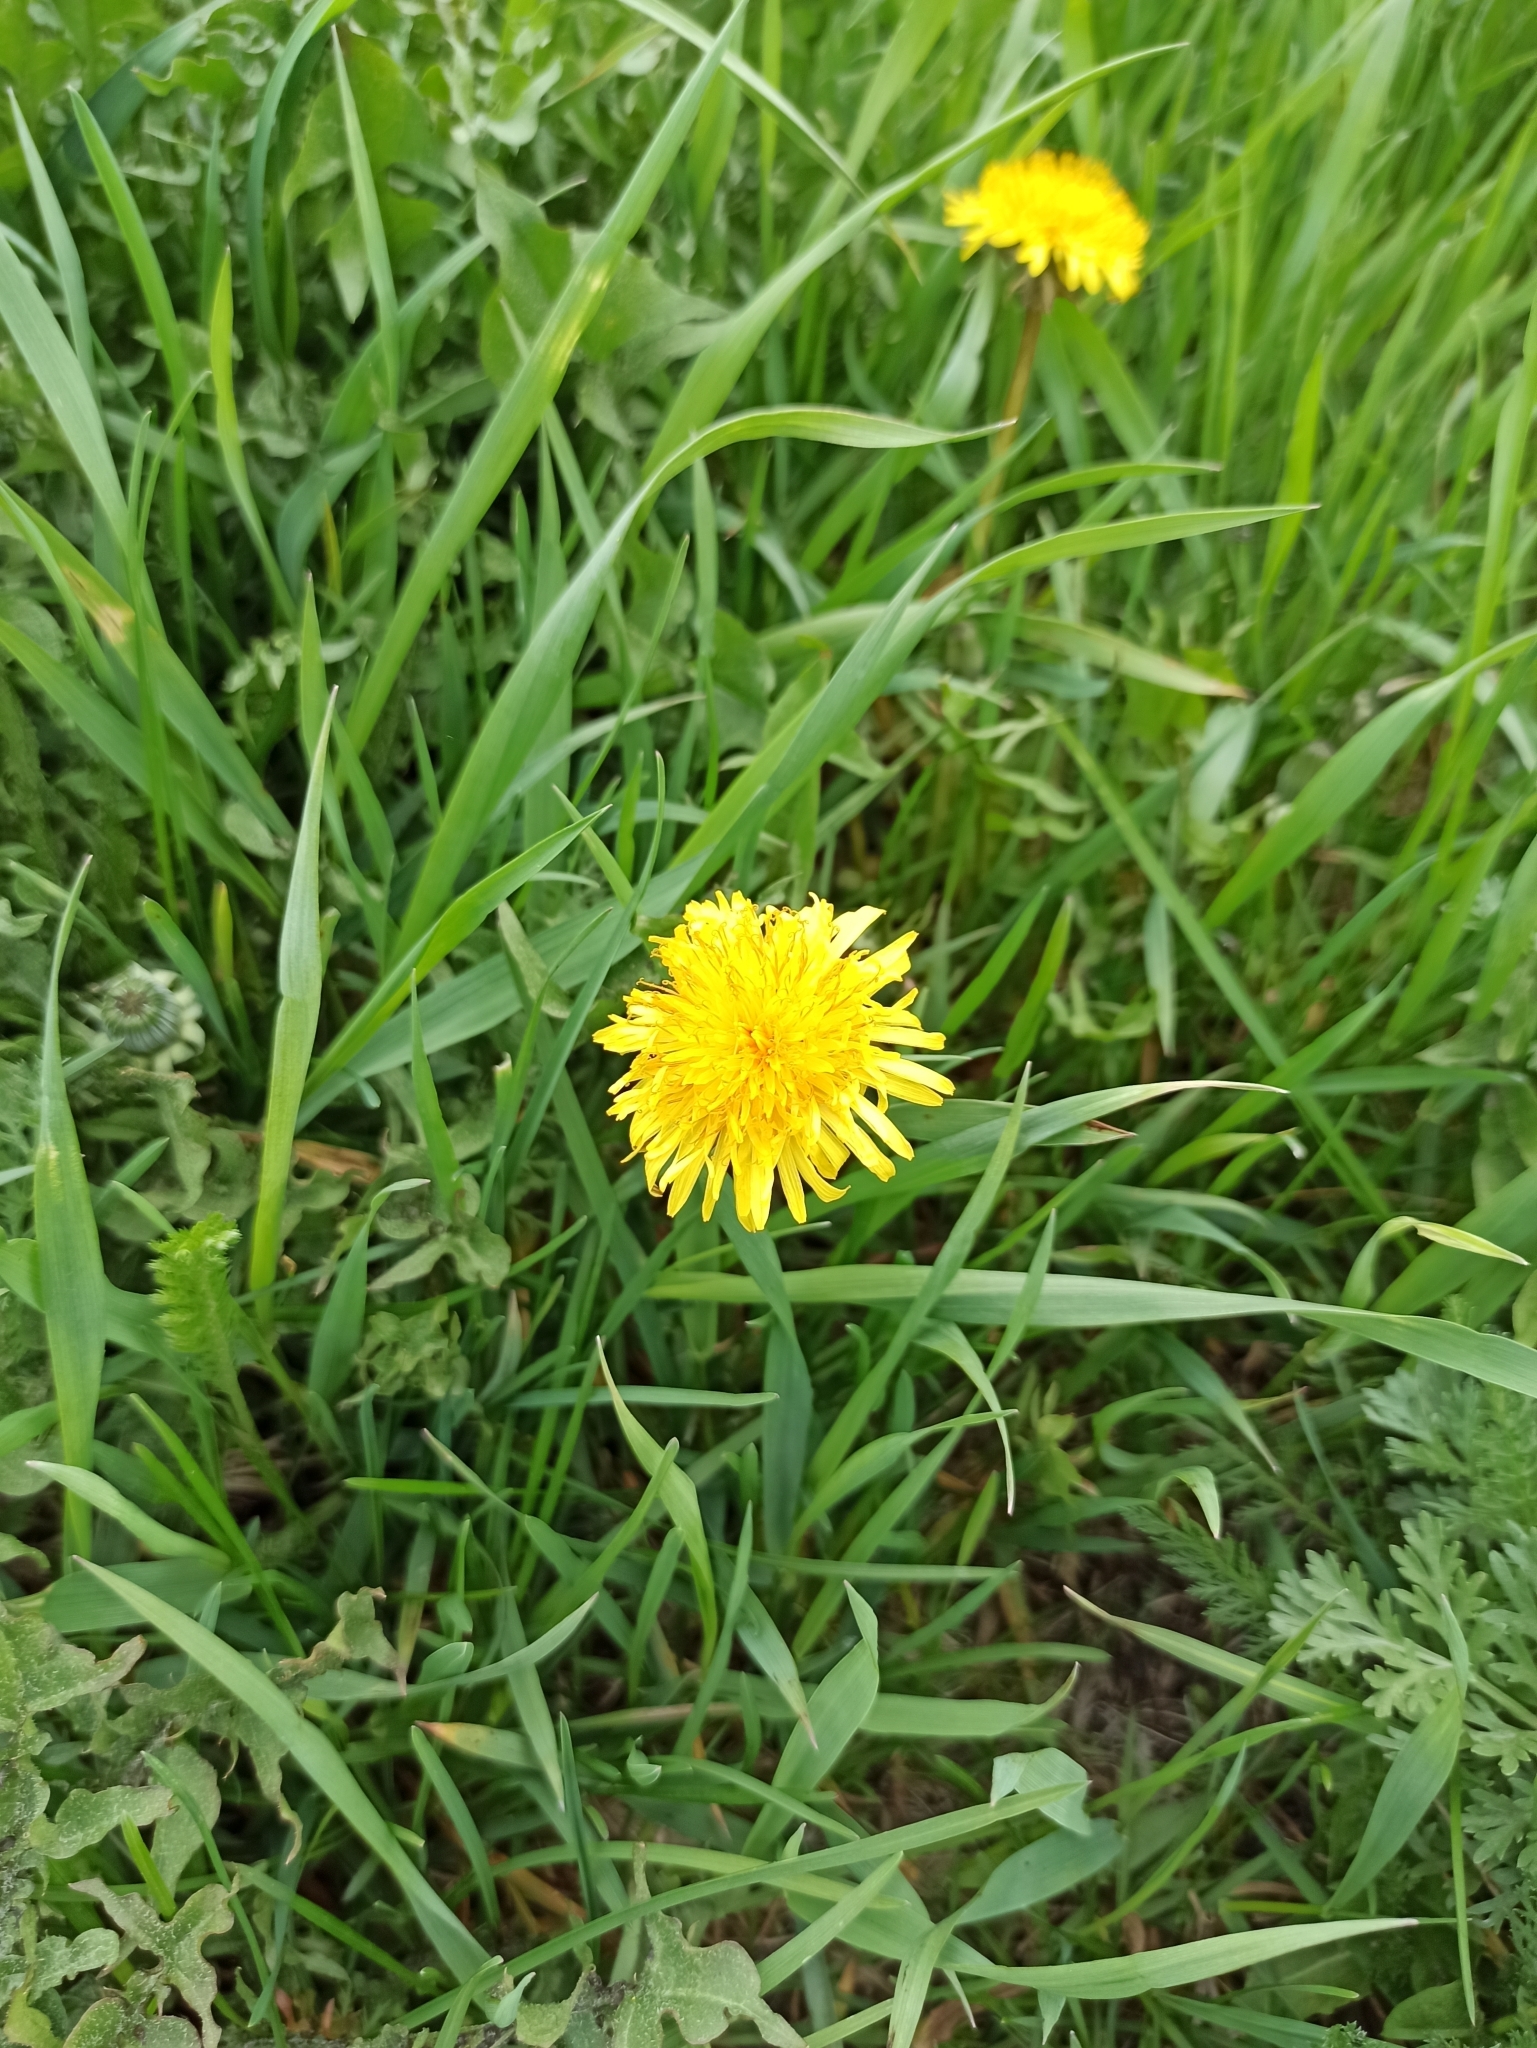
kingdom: Plantae
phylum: Tracheophyta
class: Magnoliopsida
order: Asterales
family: Asteraceae
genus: Taraxacum
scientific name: Taraxacum officinale
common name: Common dandelion
